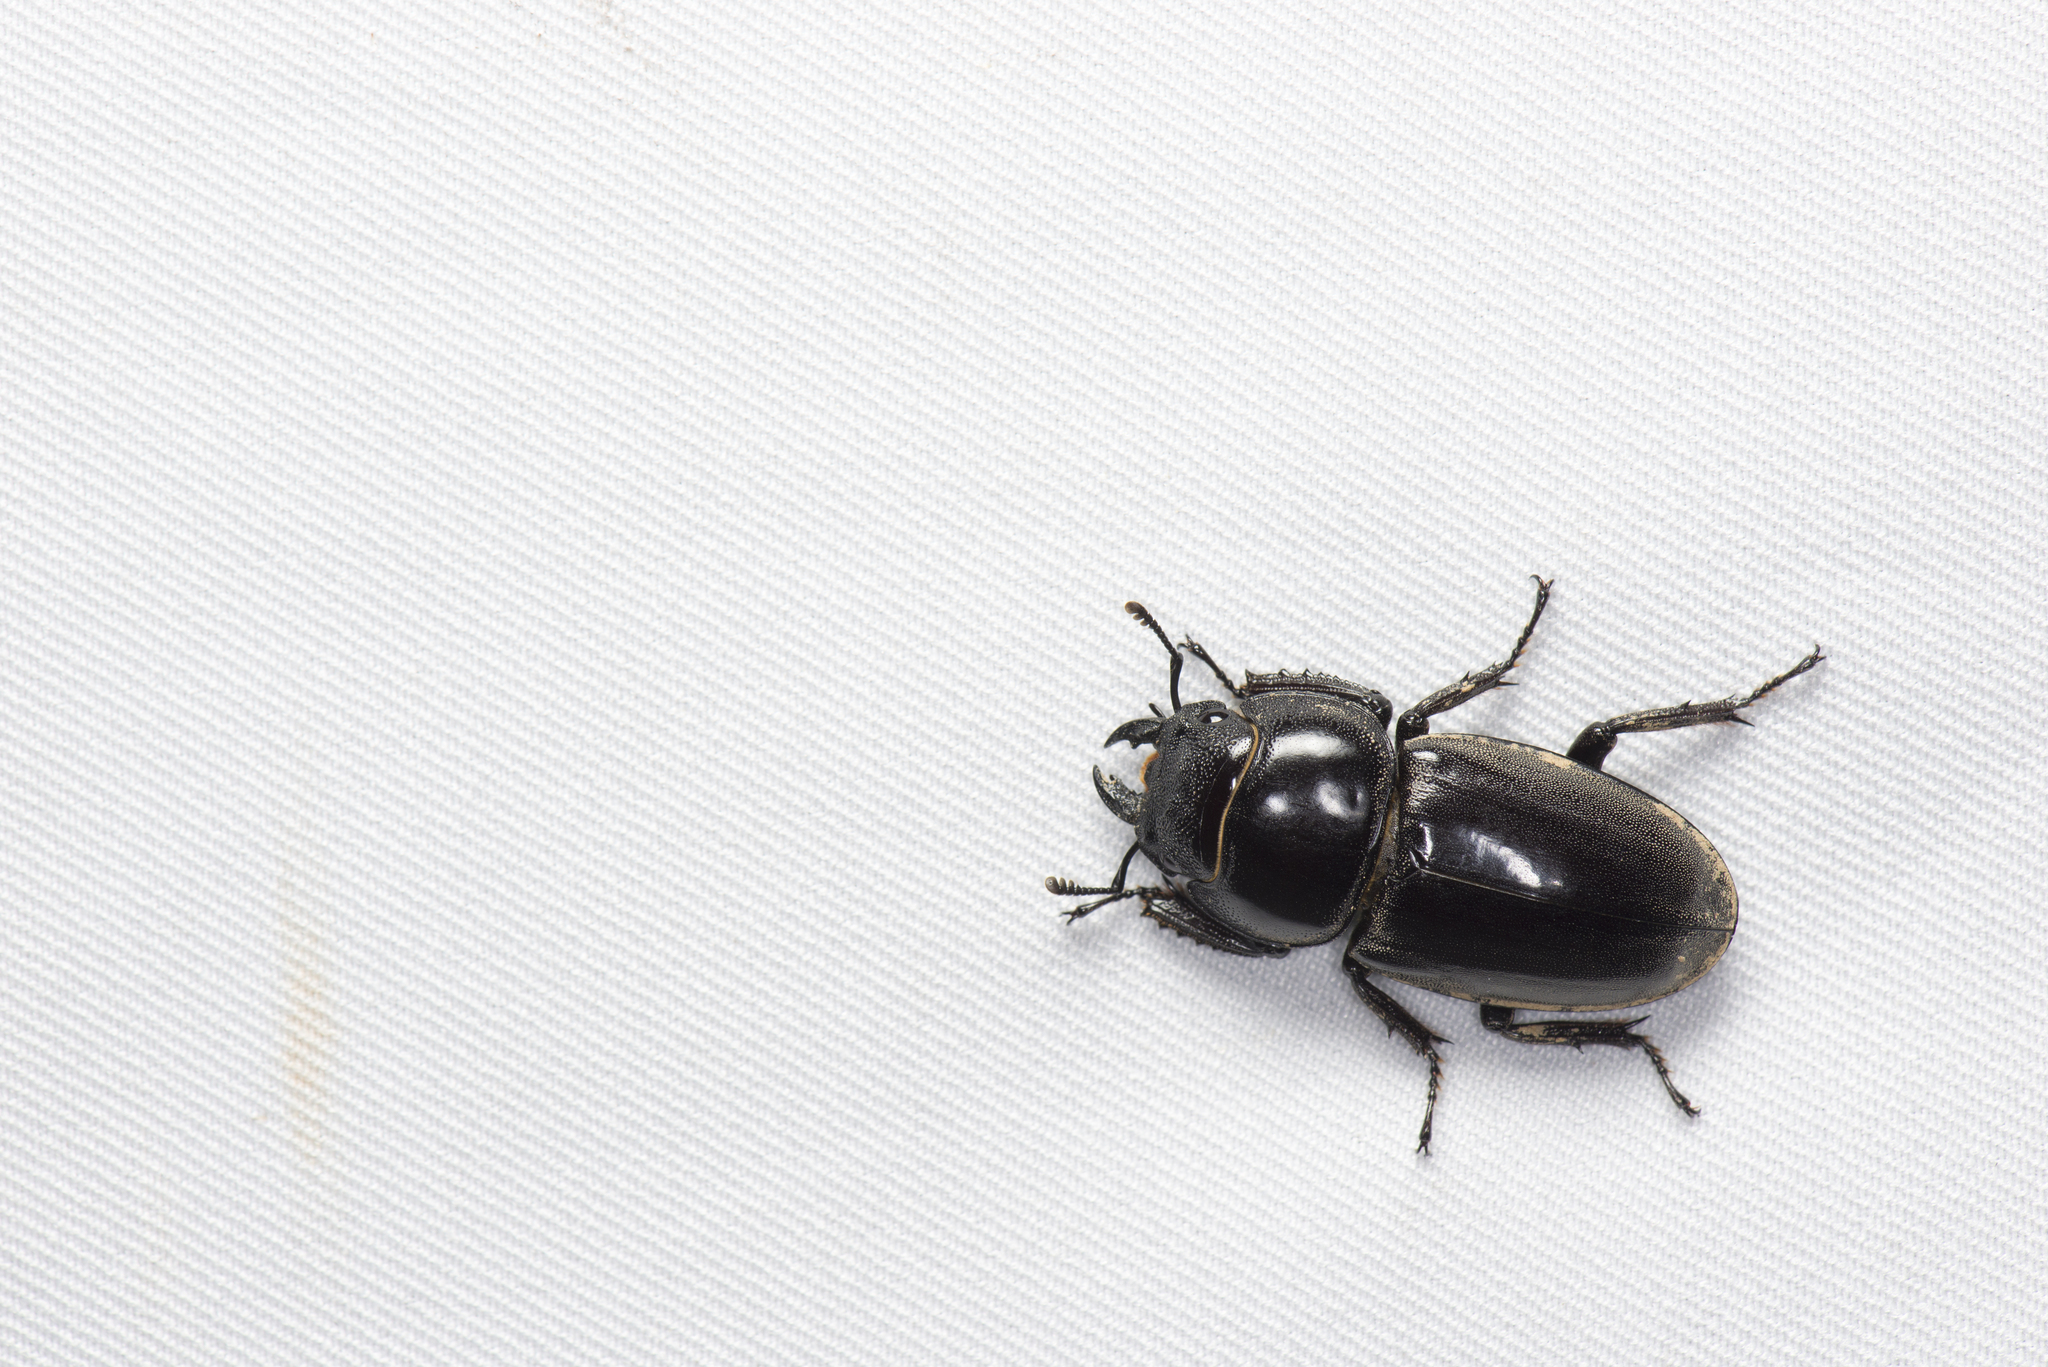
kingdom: Animalia
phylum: Arthropoda
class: Insecta
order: Coleoptera
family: Lucanidae
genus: Serrognathus
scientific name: Serrognathus titanus
